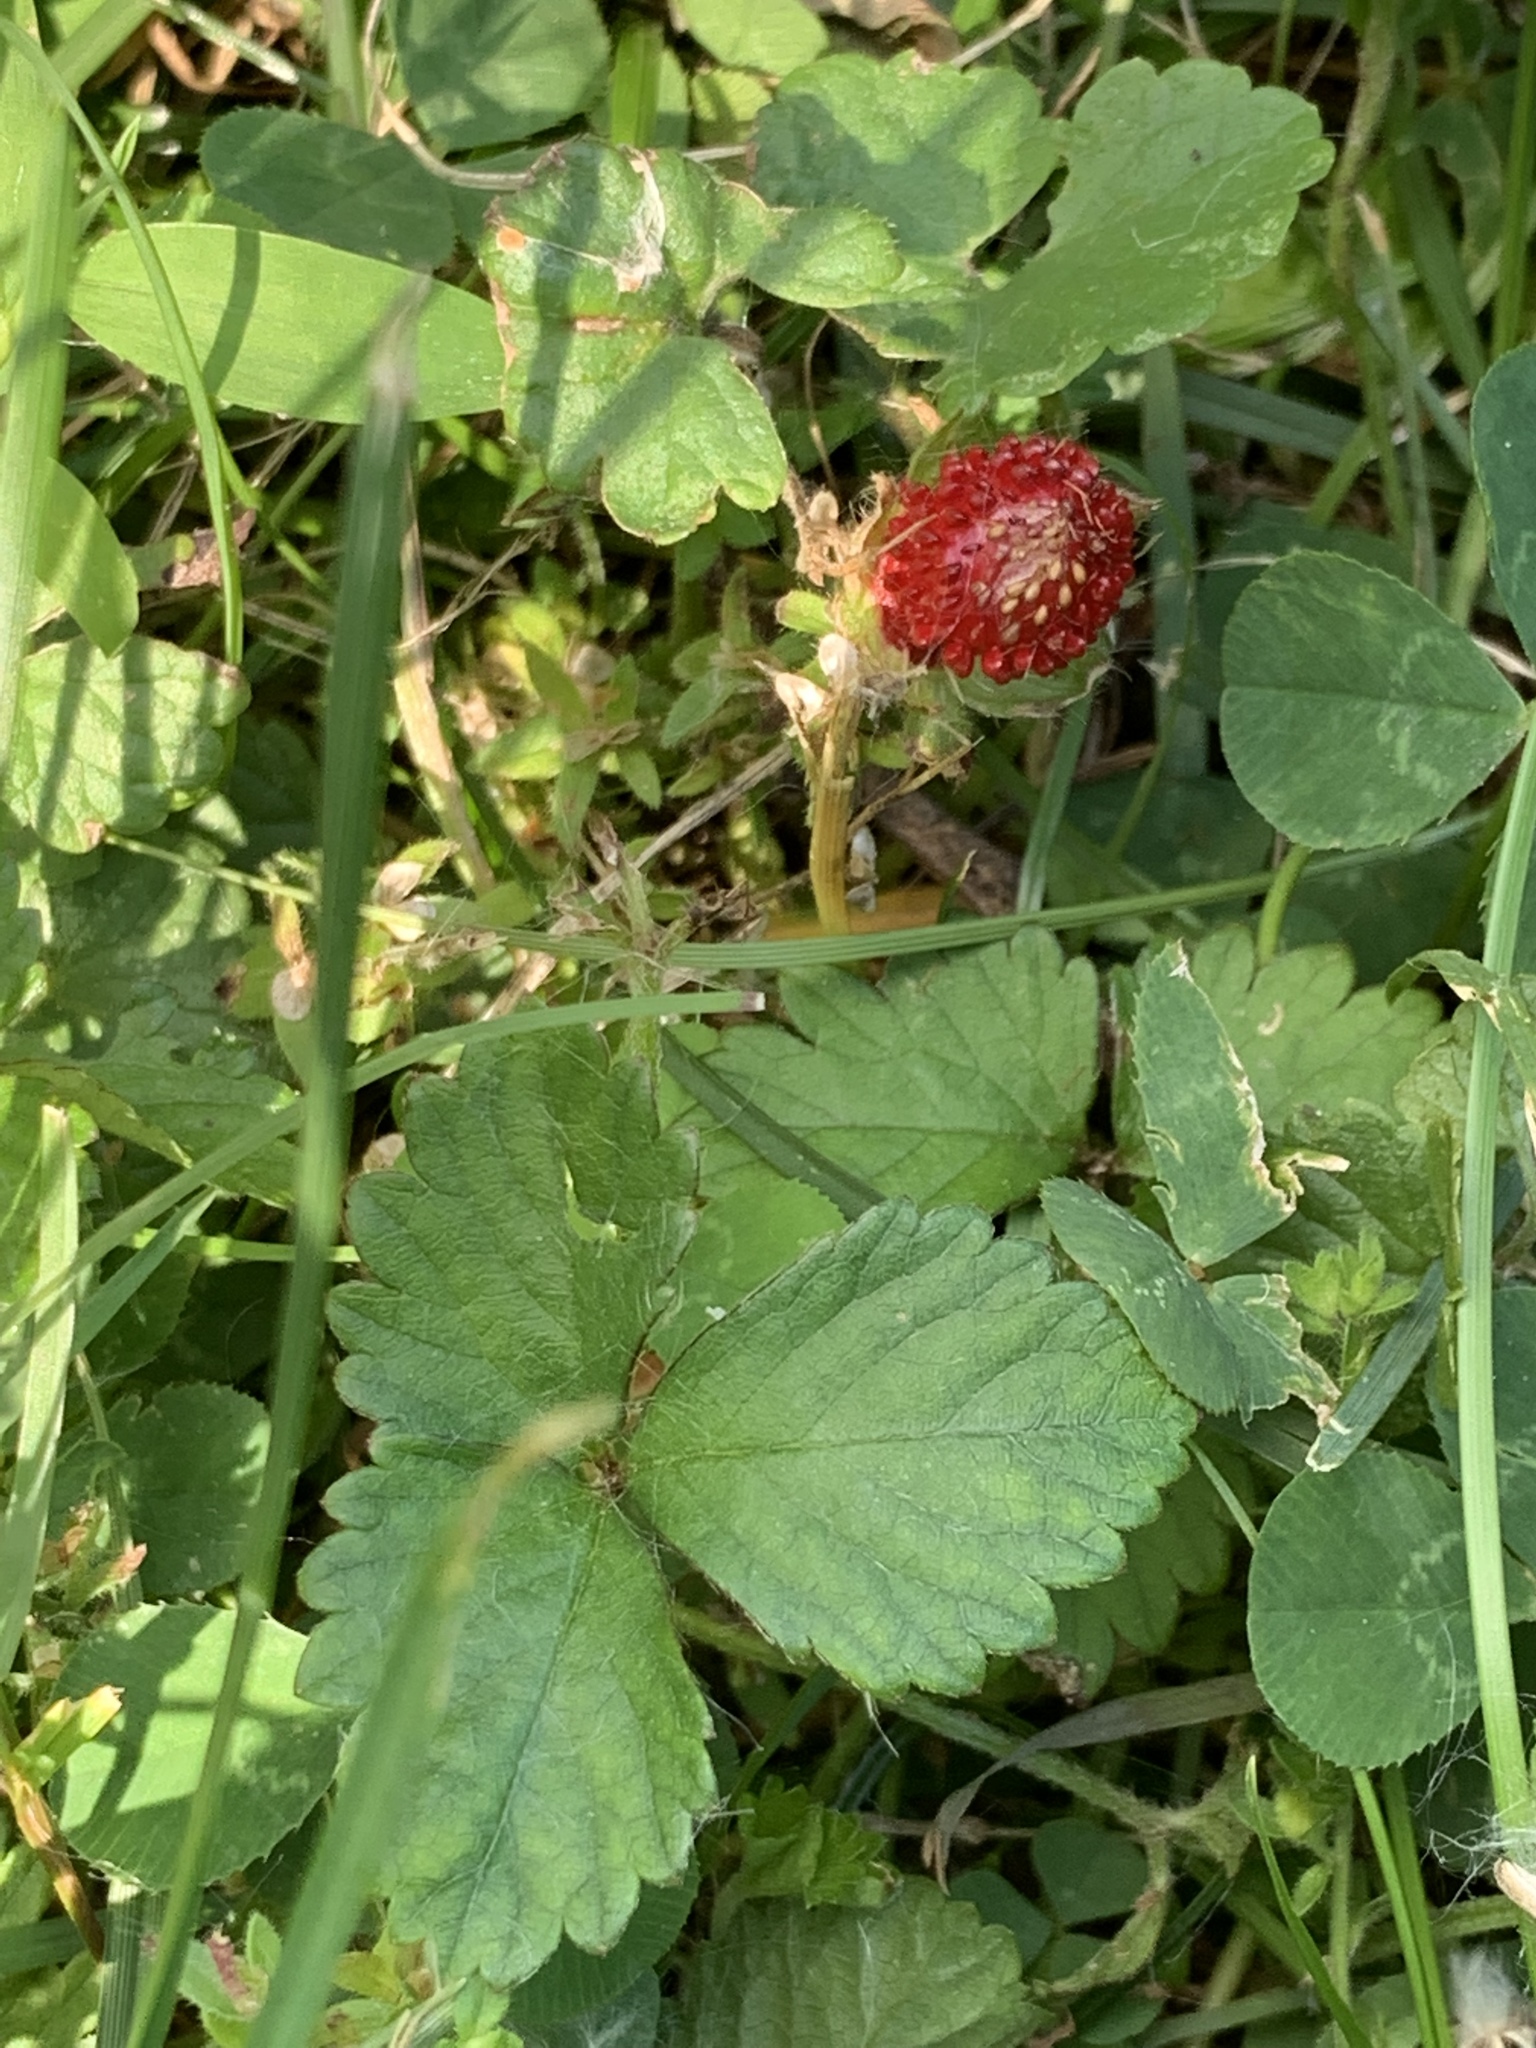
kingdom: Plantae
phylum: Tracheophyta
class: Magnoliopsida
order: Rosales
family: Rosaceae
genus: Potentilla
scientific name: Potentilla indica
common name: Yellow-flowered strawberry
